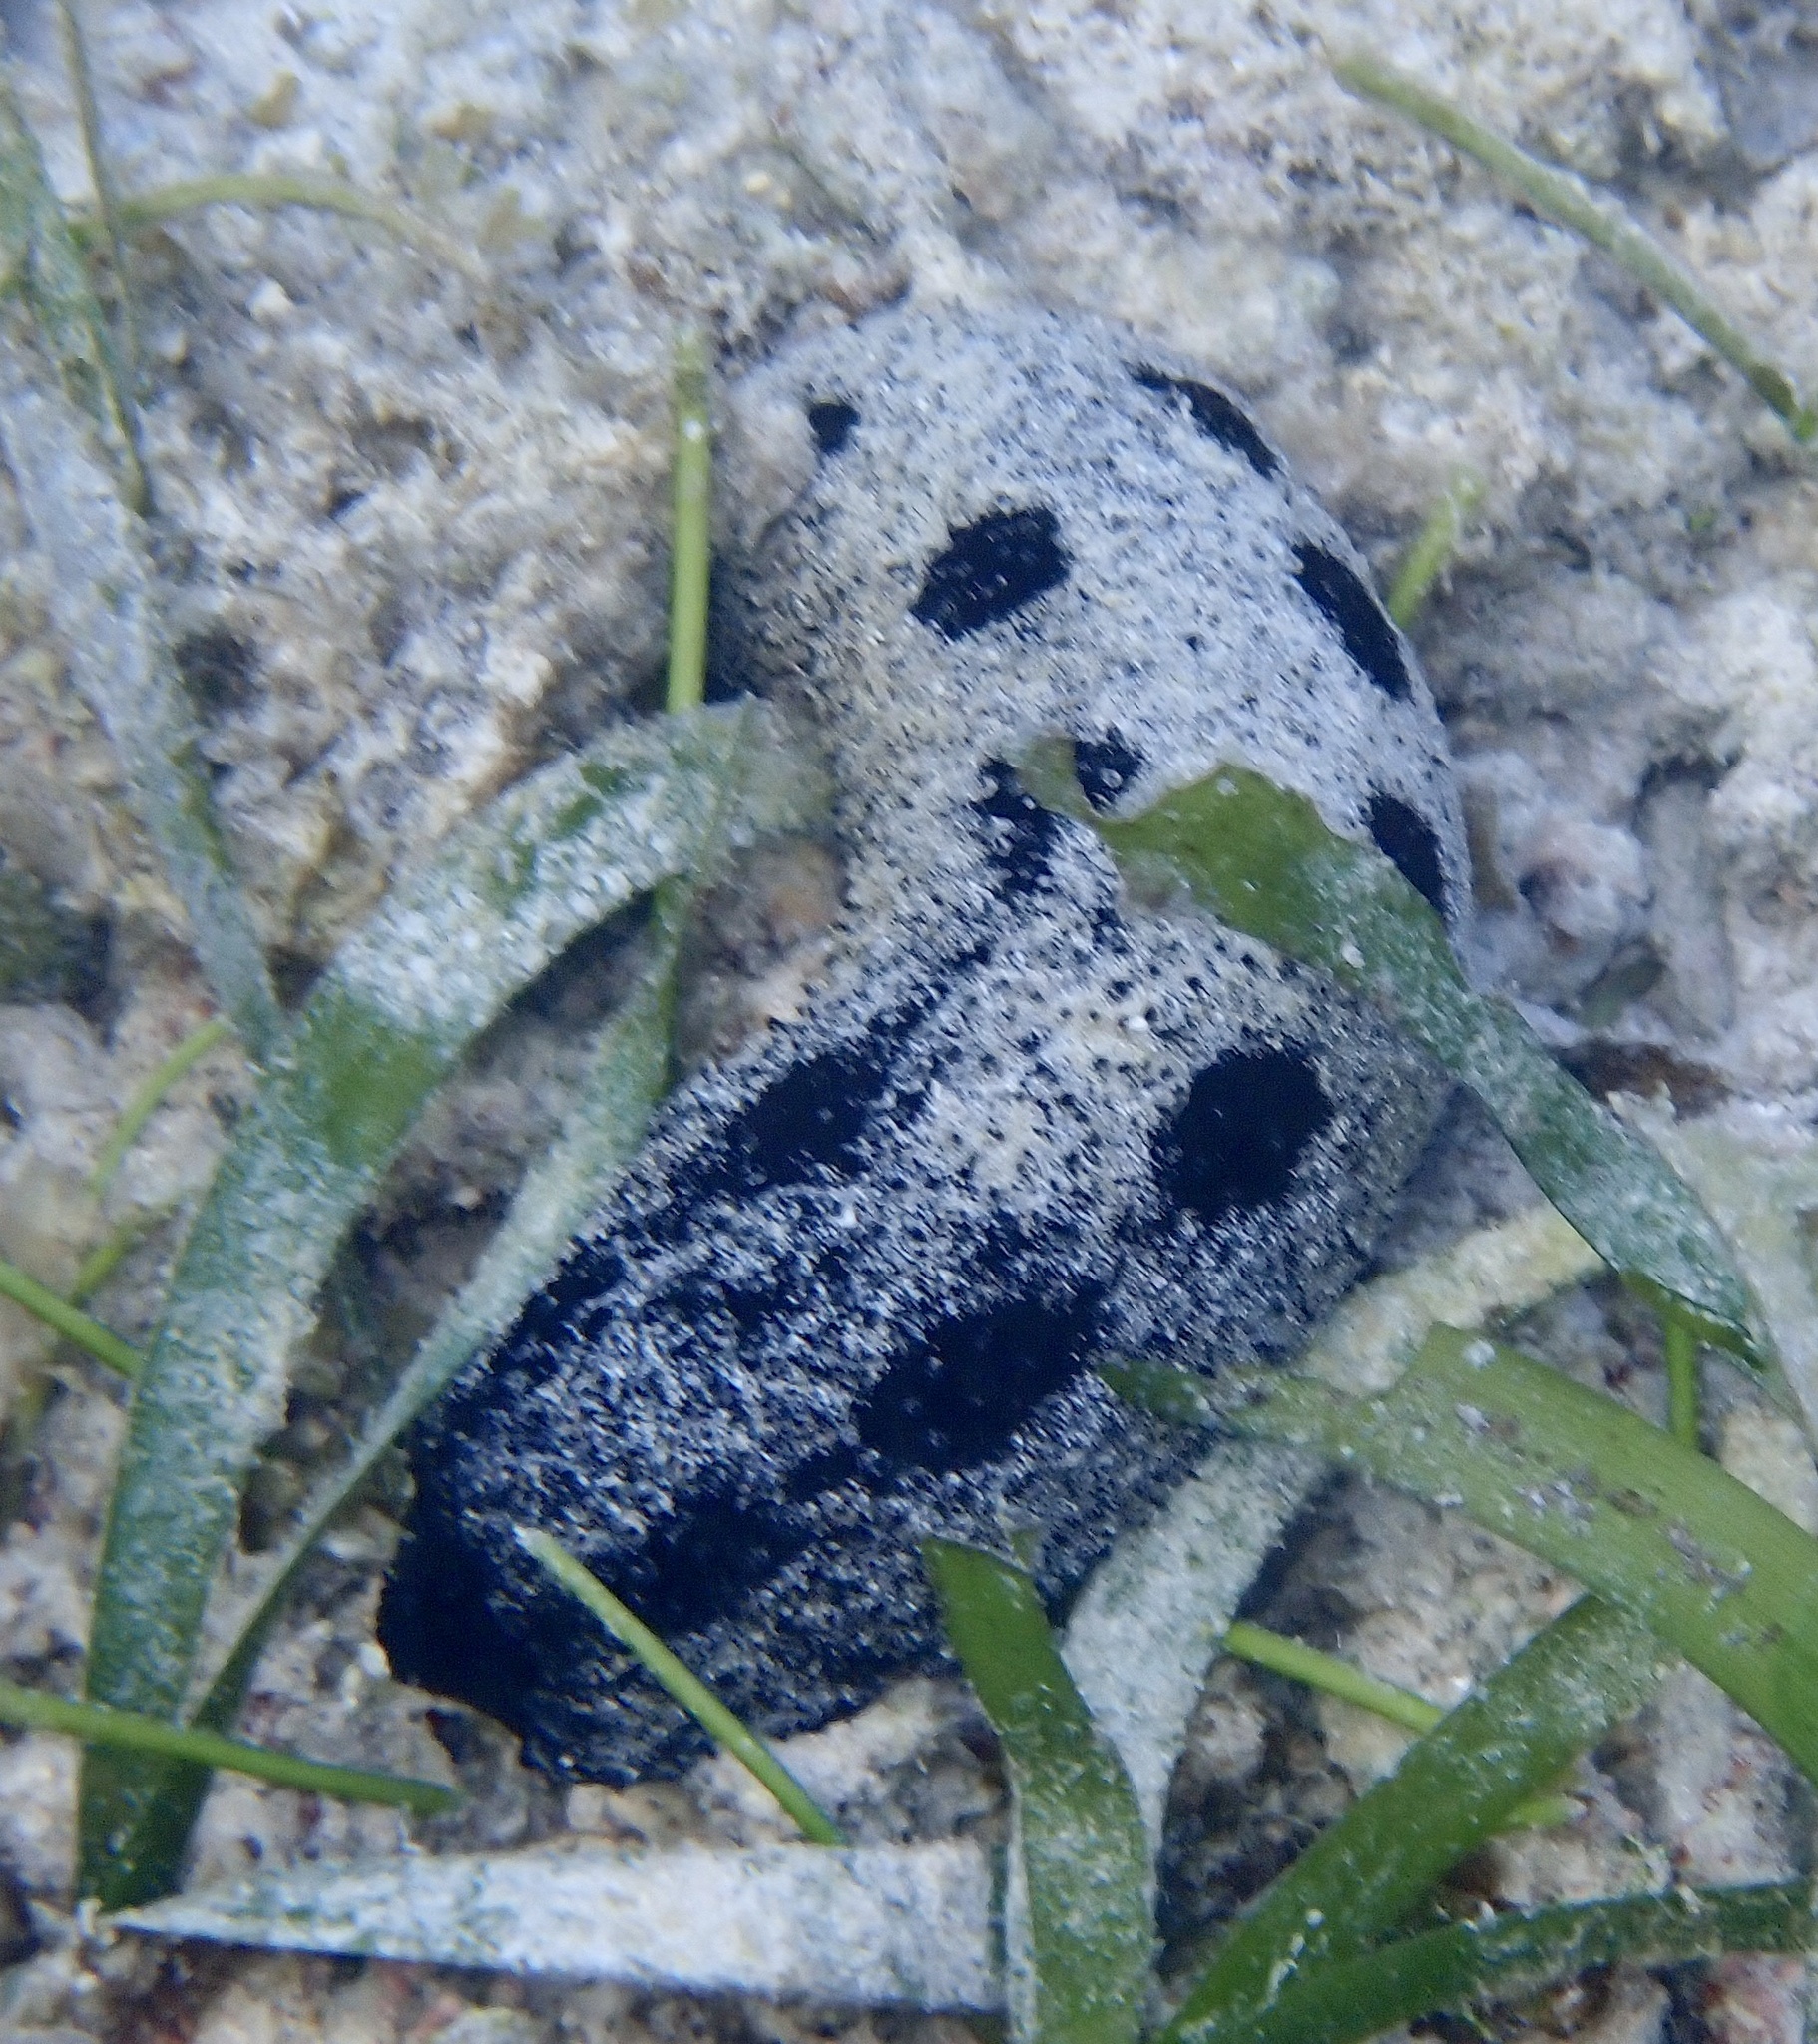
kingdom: Animalia
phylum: Echinodermata
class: Holothuroidea
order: Holothuriida
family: Holothuriidae
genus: Holothuria
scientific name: Holothuria atra
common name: Lollyfish
